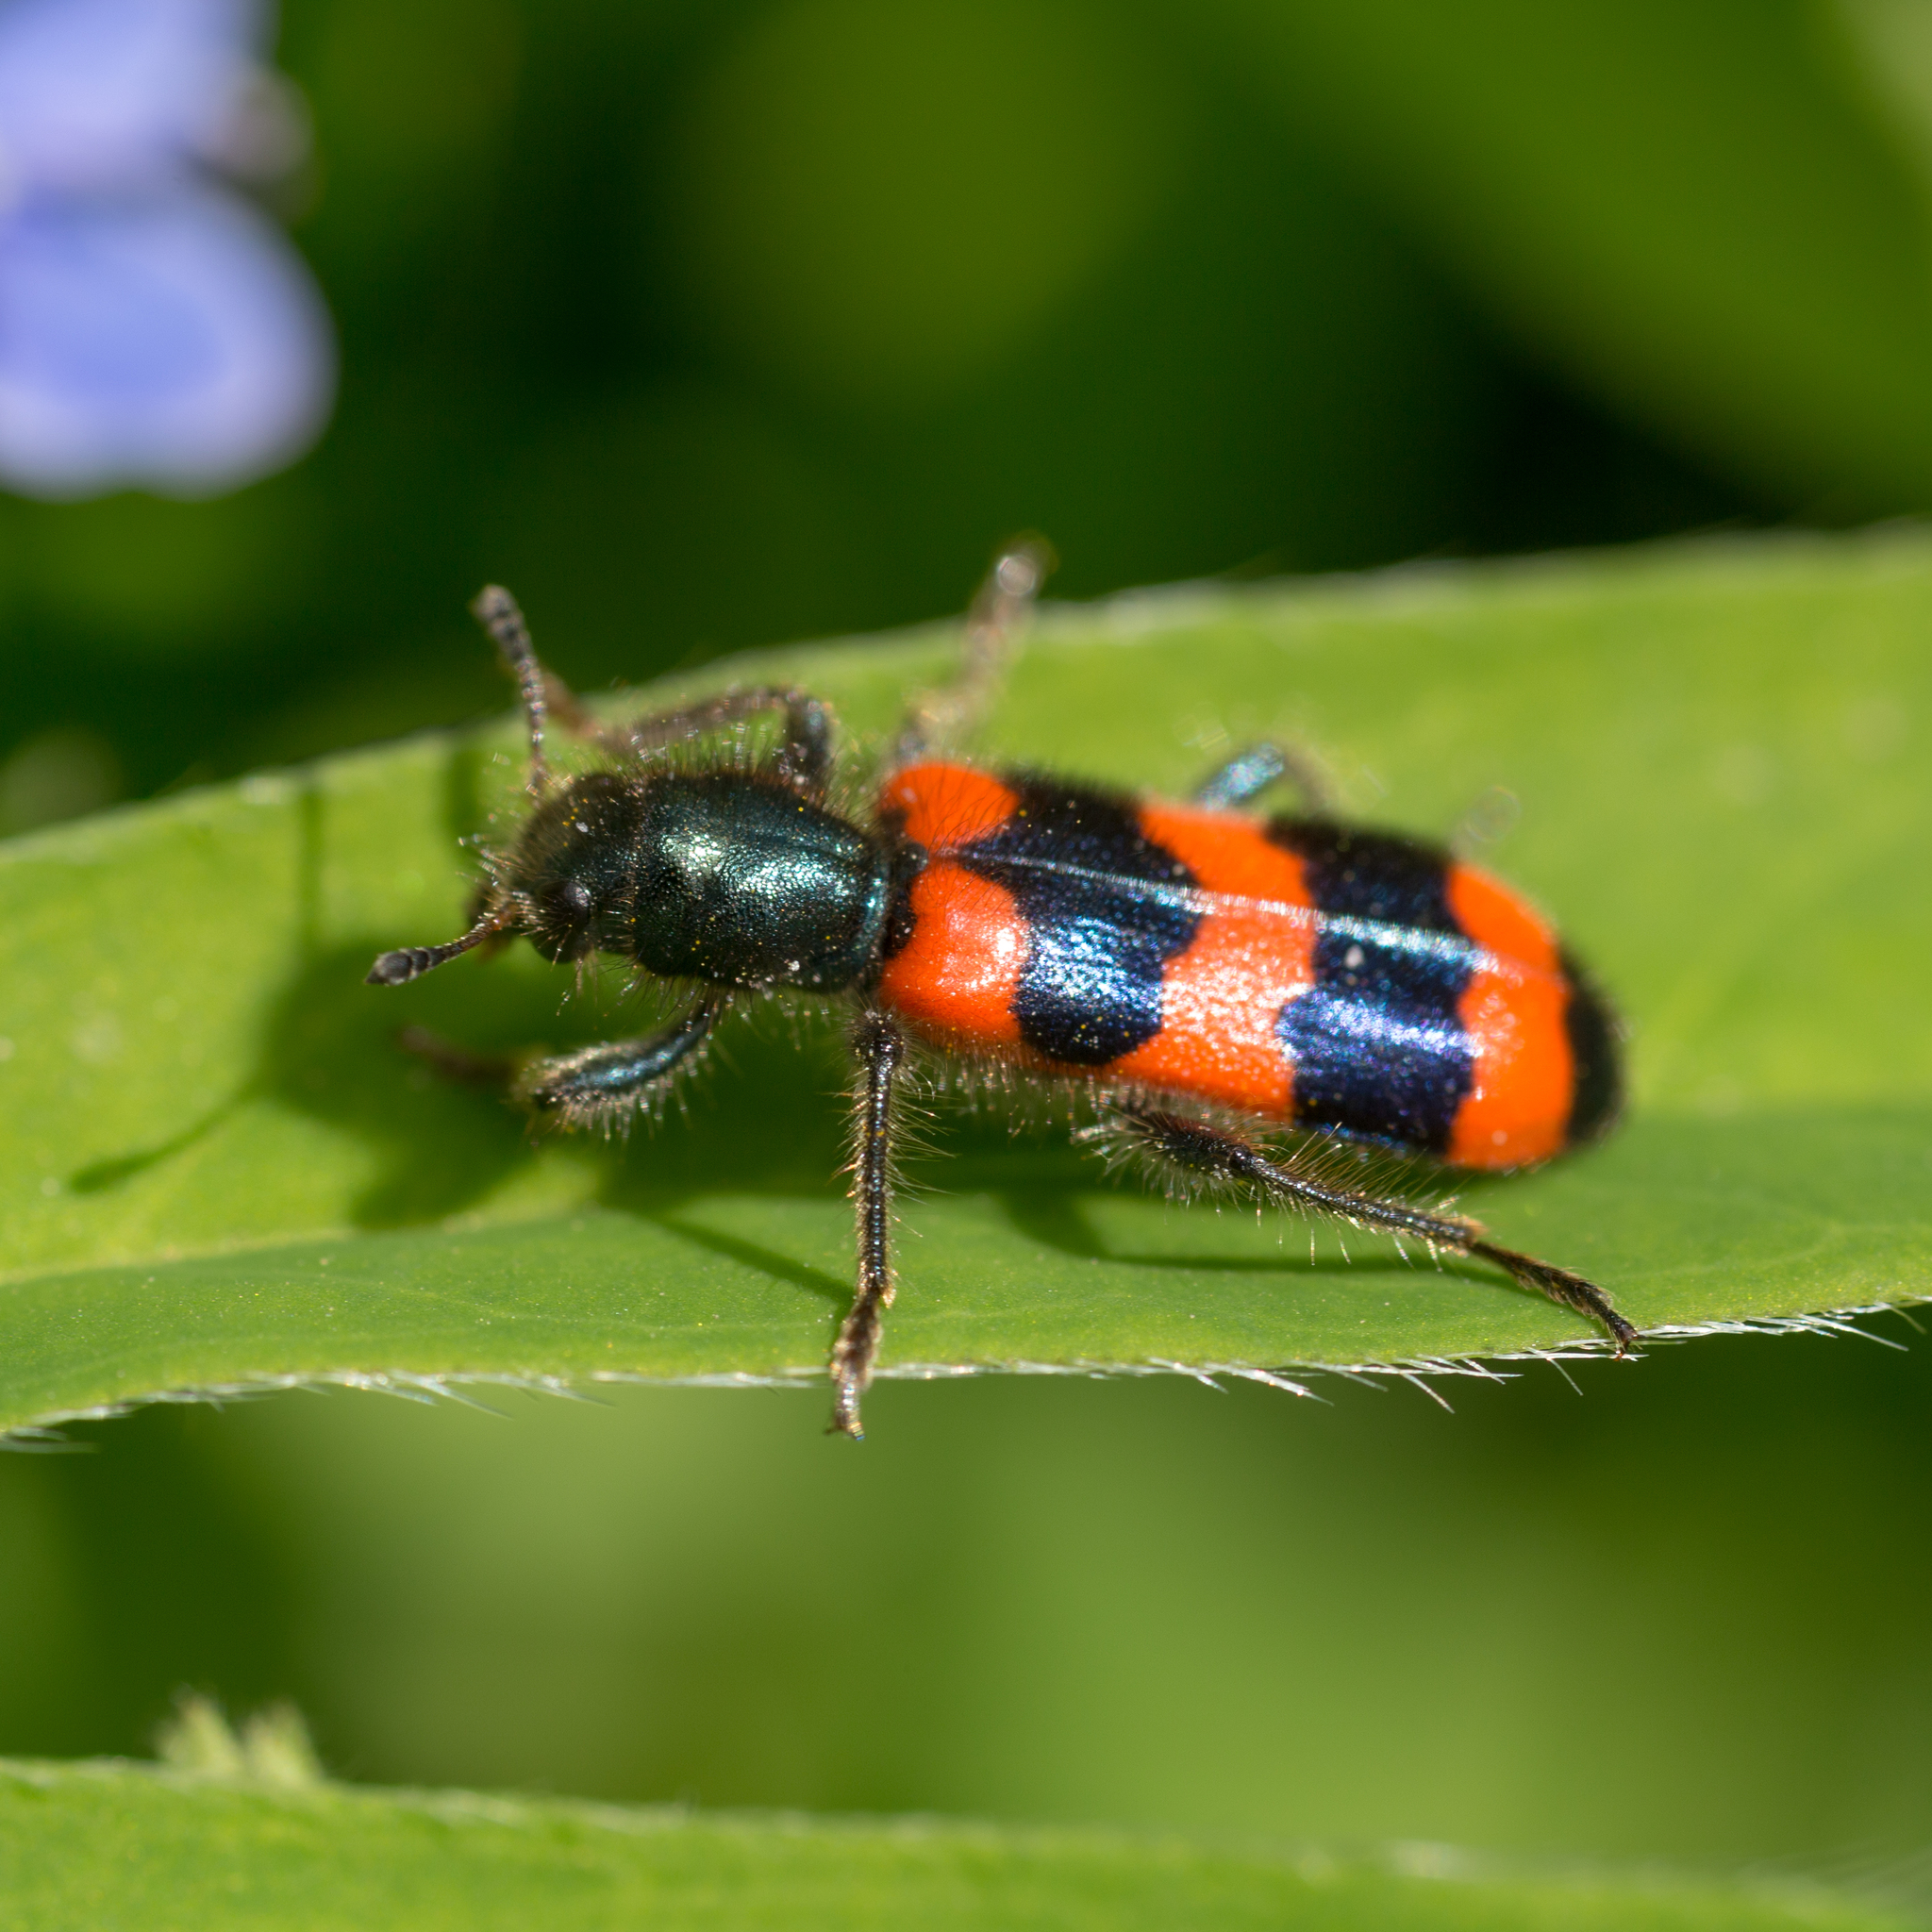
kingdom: Animalia
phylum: Arthropoda
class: Insecta
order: Coleoptera
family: Cleridae
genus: Trichodes
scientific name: Trichodes apiarius
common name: Bee-eating beetle
